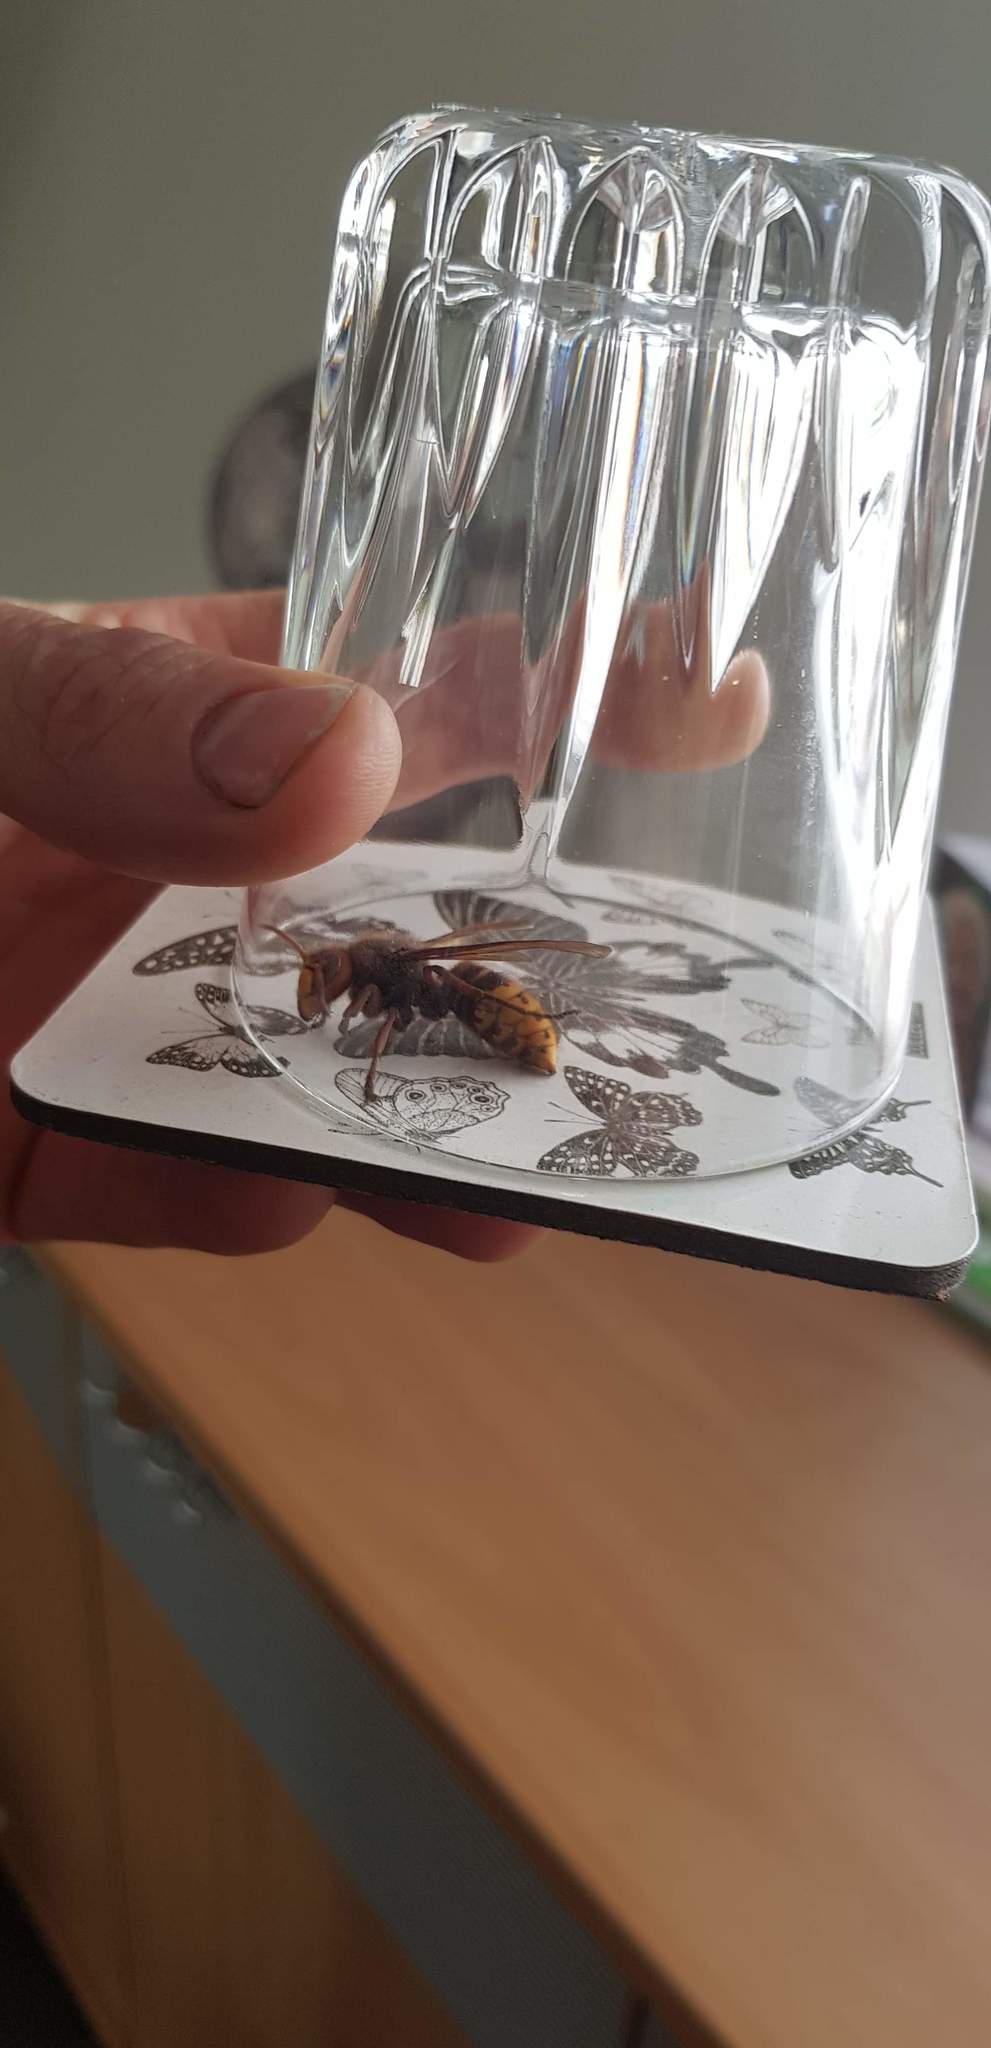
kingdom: Animalia
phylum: Arthropoda
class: Insecta
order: Hymenoptera
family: Vespidae
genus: Vespa
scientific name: Vespa crabro
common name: Hornet
